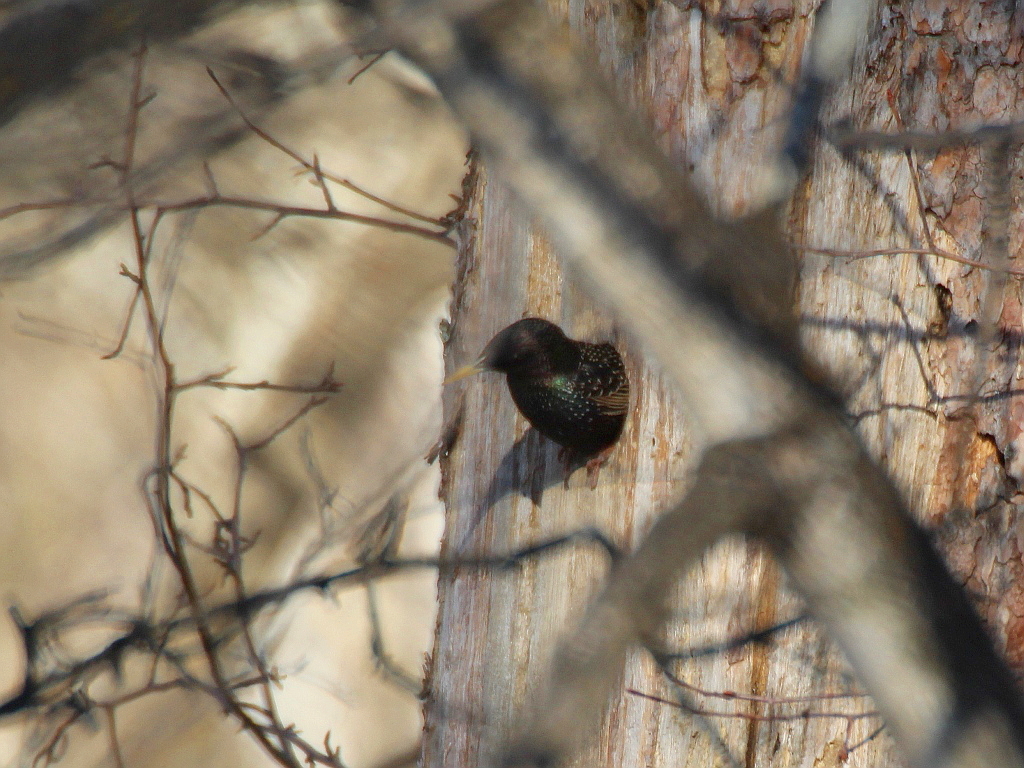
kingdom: Animalia
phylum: Chordata
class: Aves
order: Passeriformes
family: Sturnidae
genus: Sturnus
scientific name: Sturnus vulgaris
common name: Common starling
